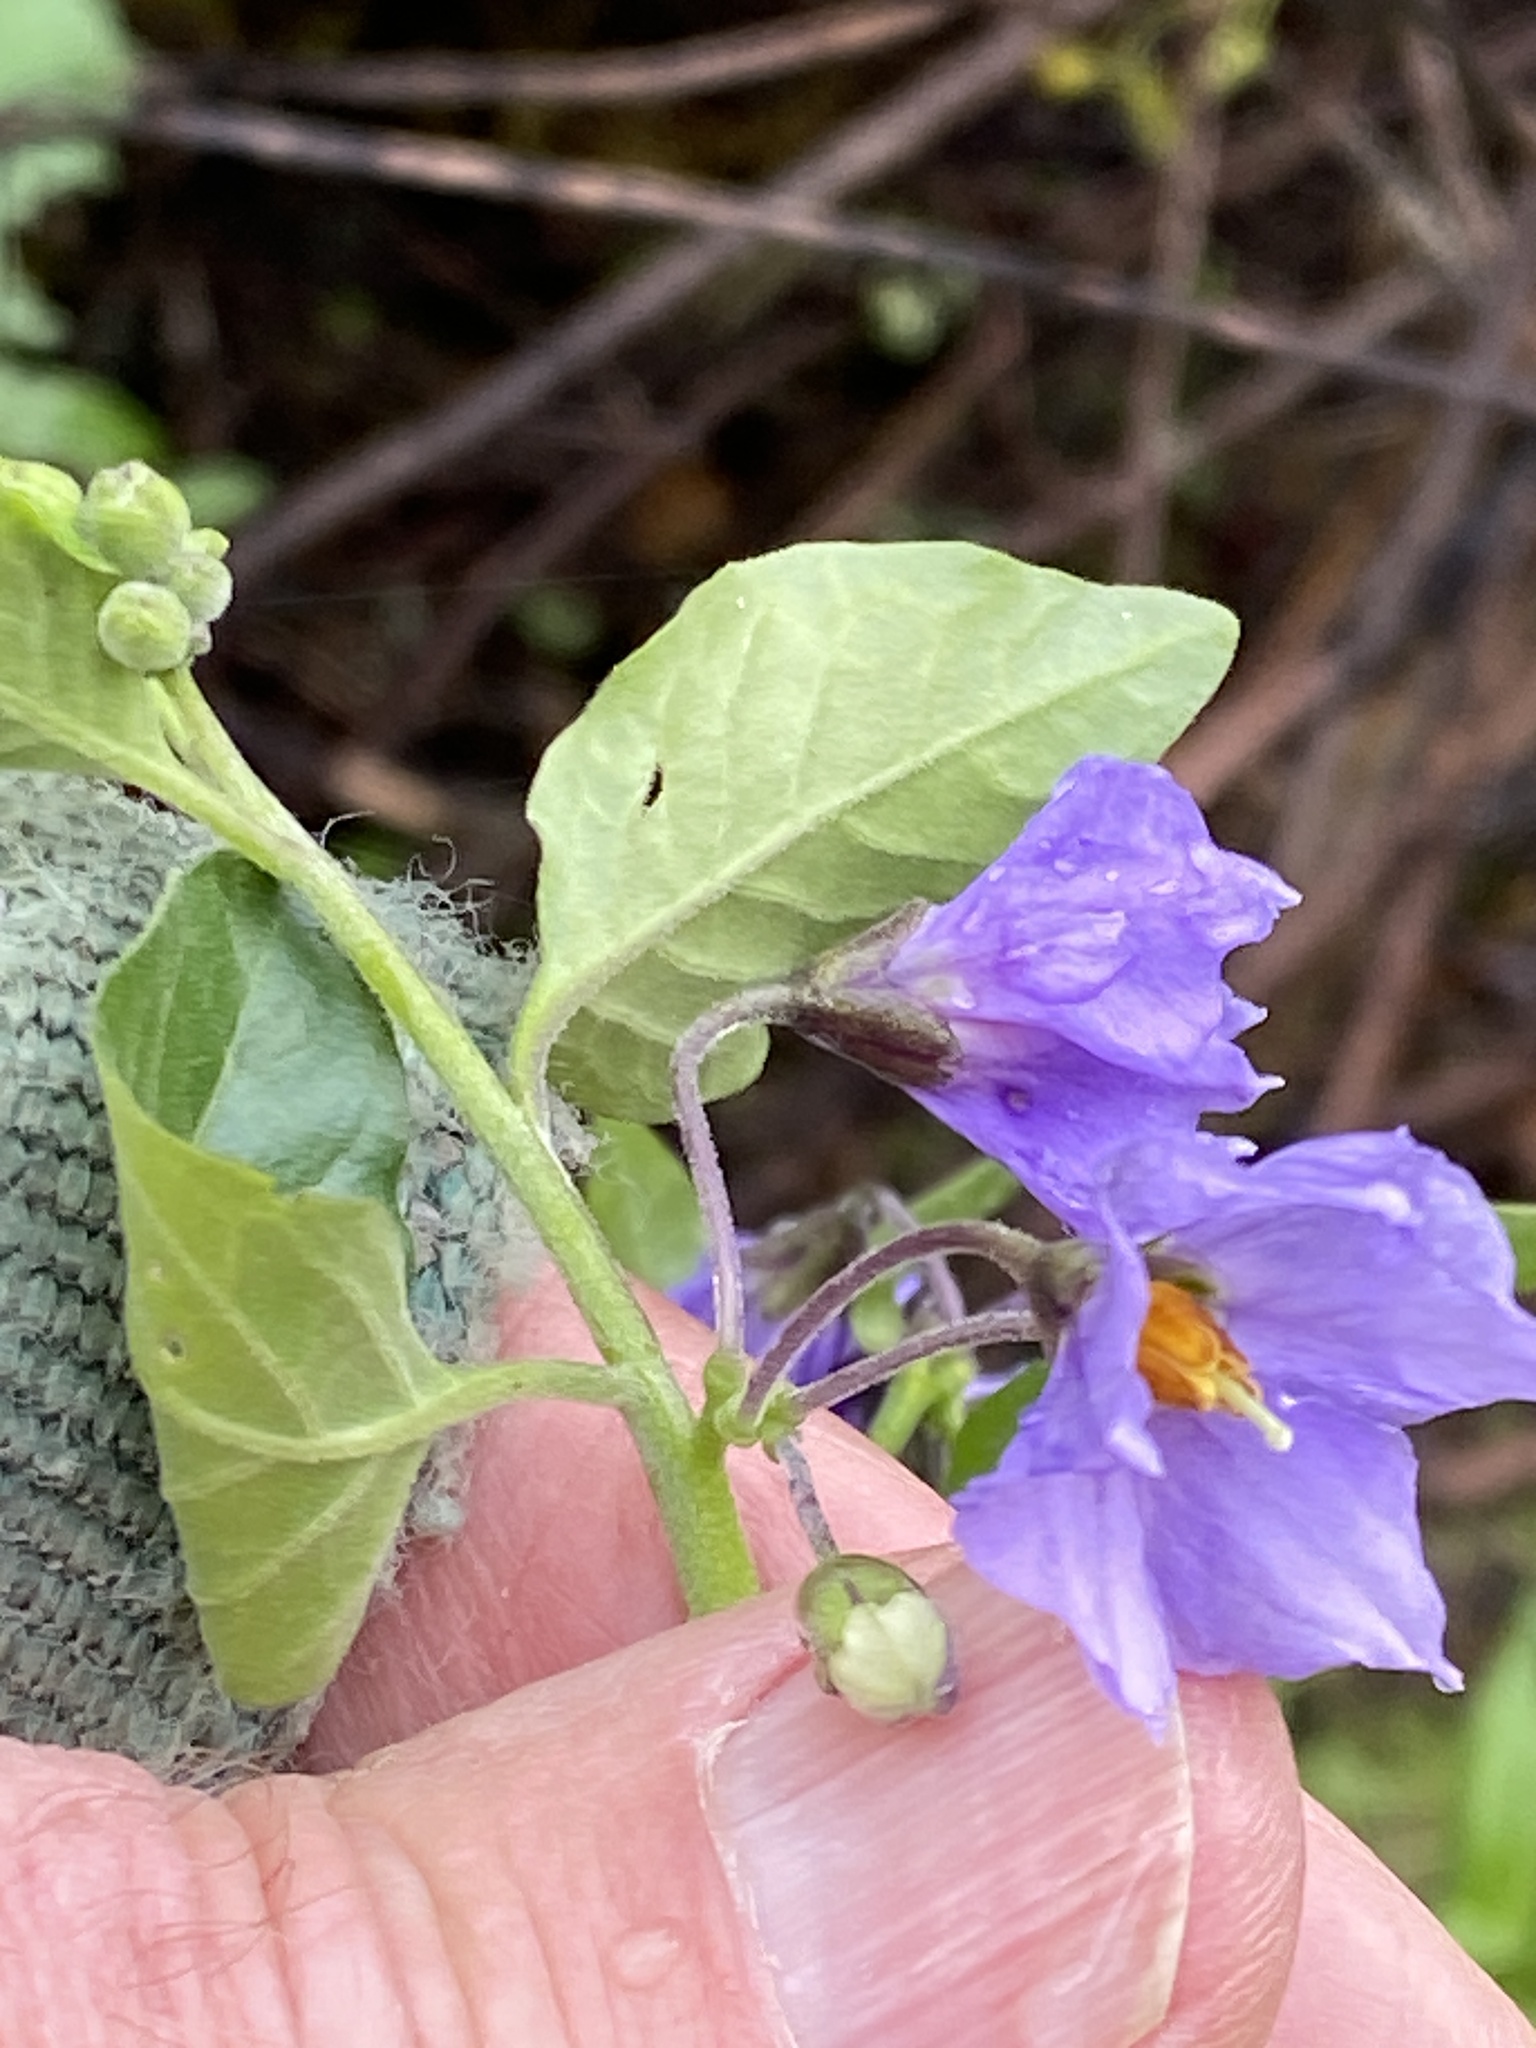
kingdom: Plantae
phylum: Tracheophyta
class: Magnoliopsida
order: Solanales
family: Solanaceae
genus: Solanum
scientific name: Solanum umbelliferum
